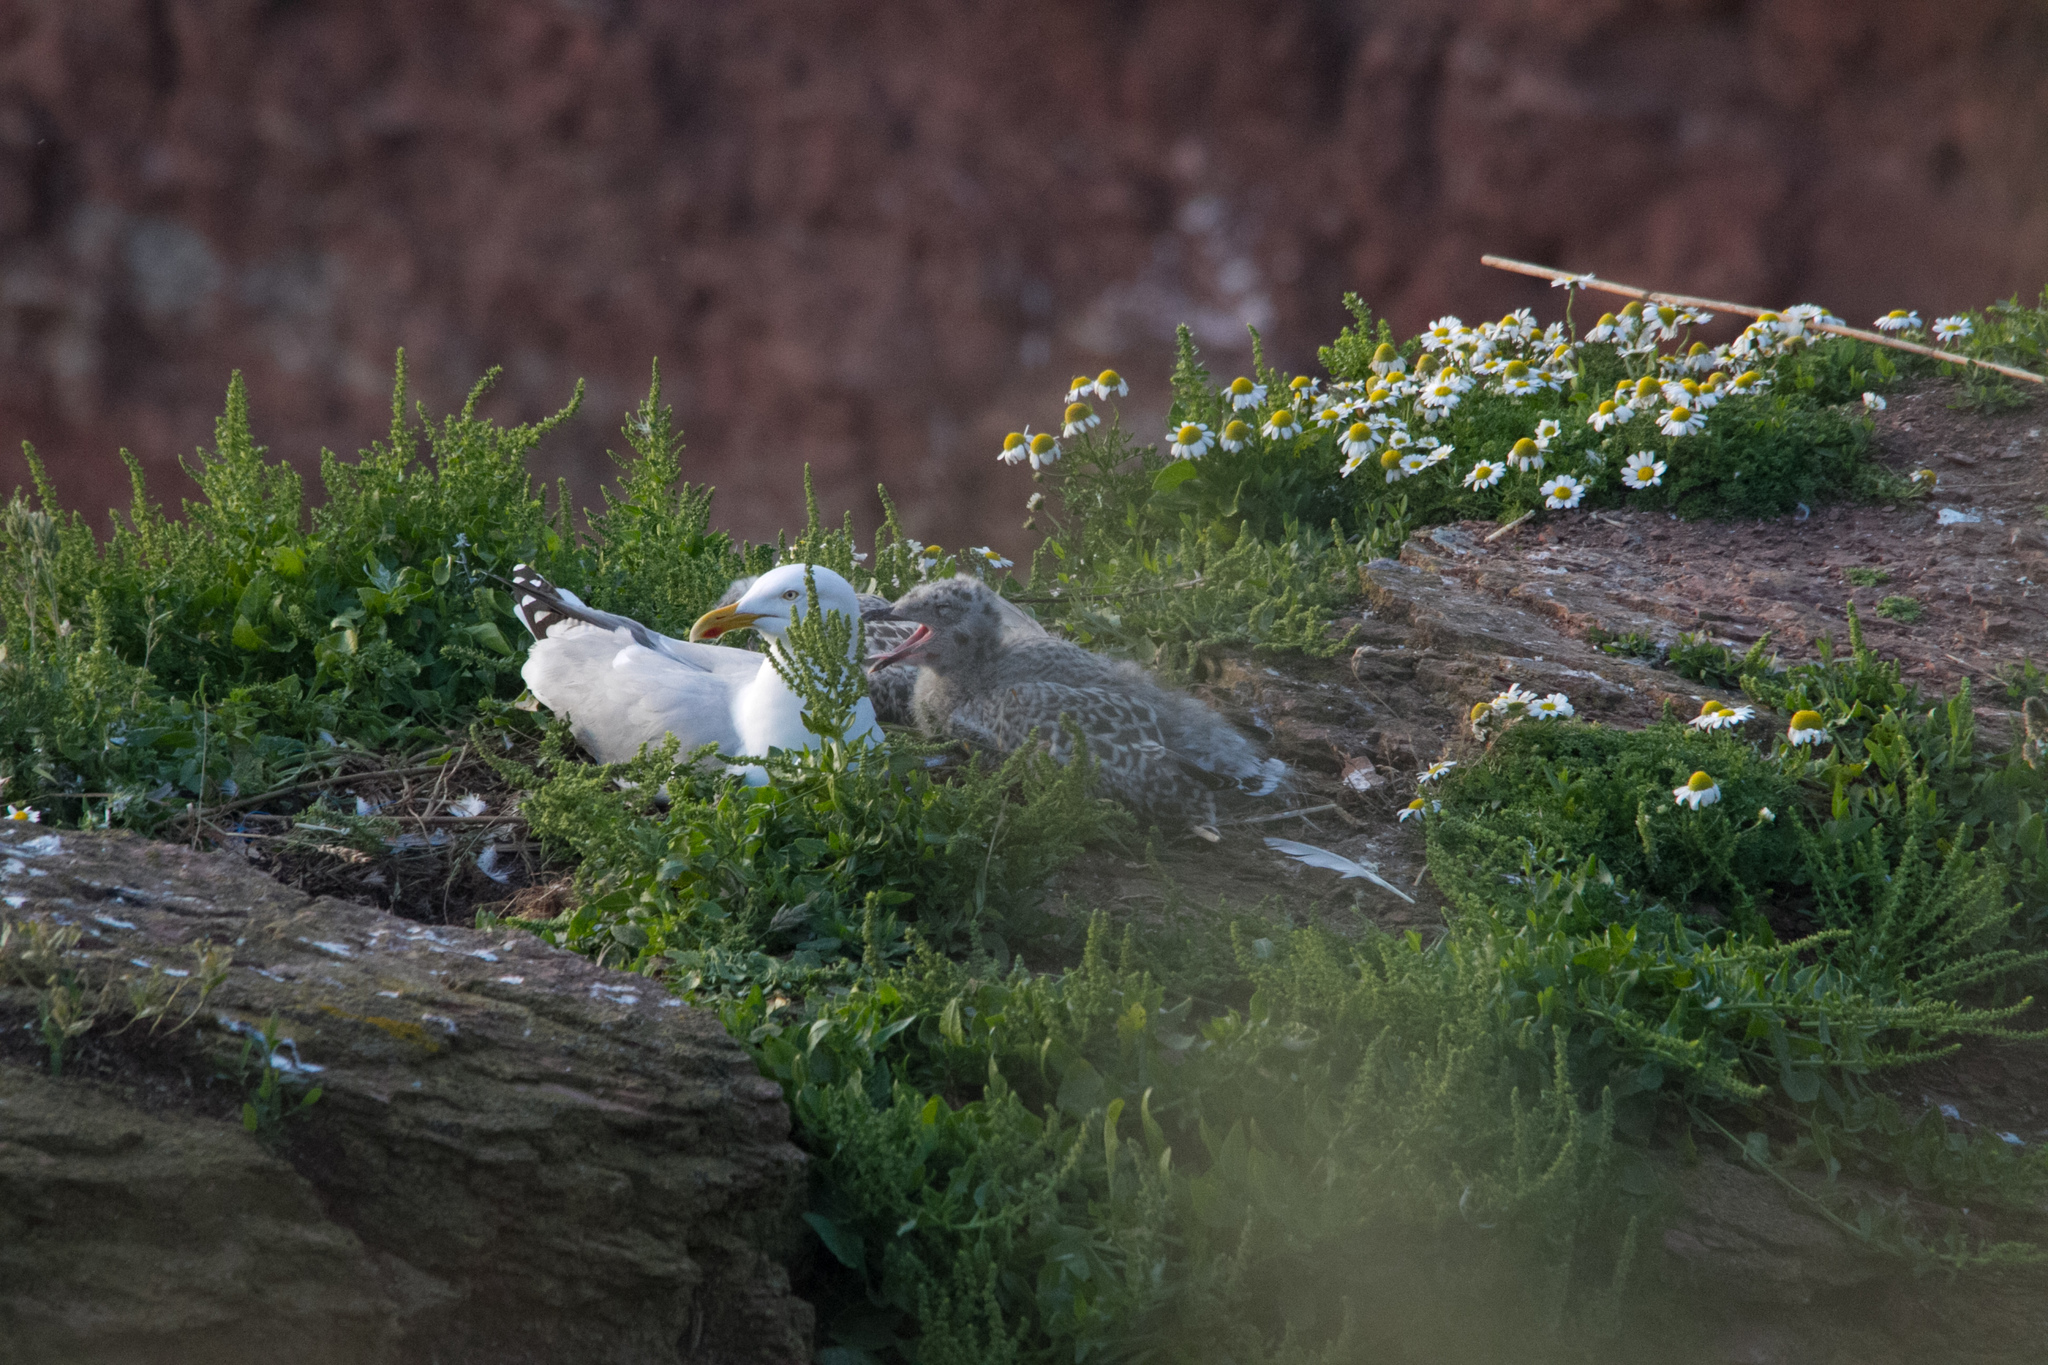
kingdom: Animalia
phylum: Chordata
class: Aves
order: Charadriiformes
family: Laridae
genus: Larus
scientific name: Larus argentatus
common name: Herring gull
